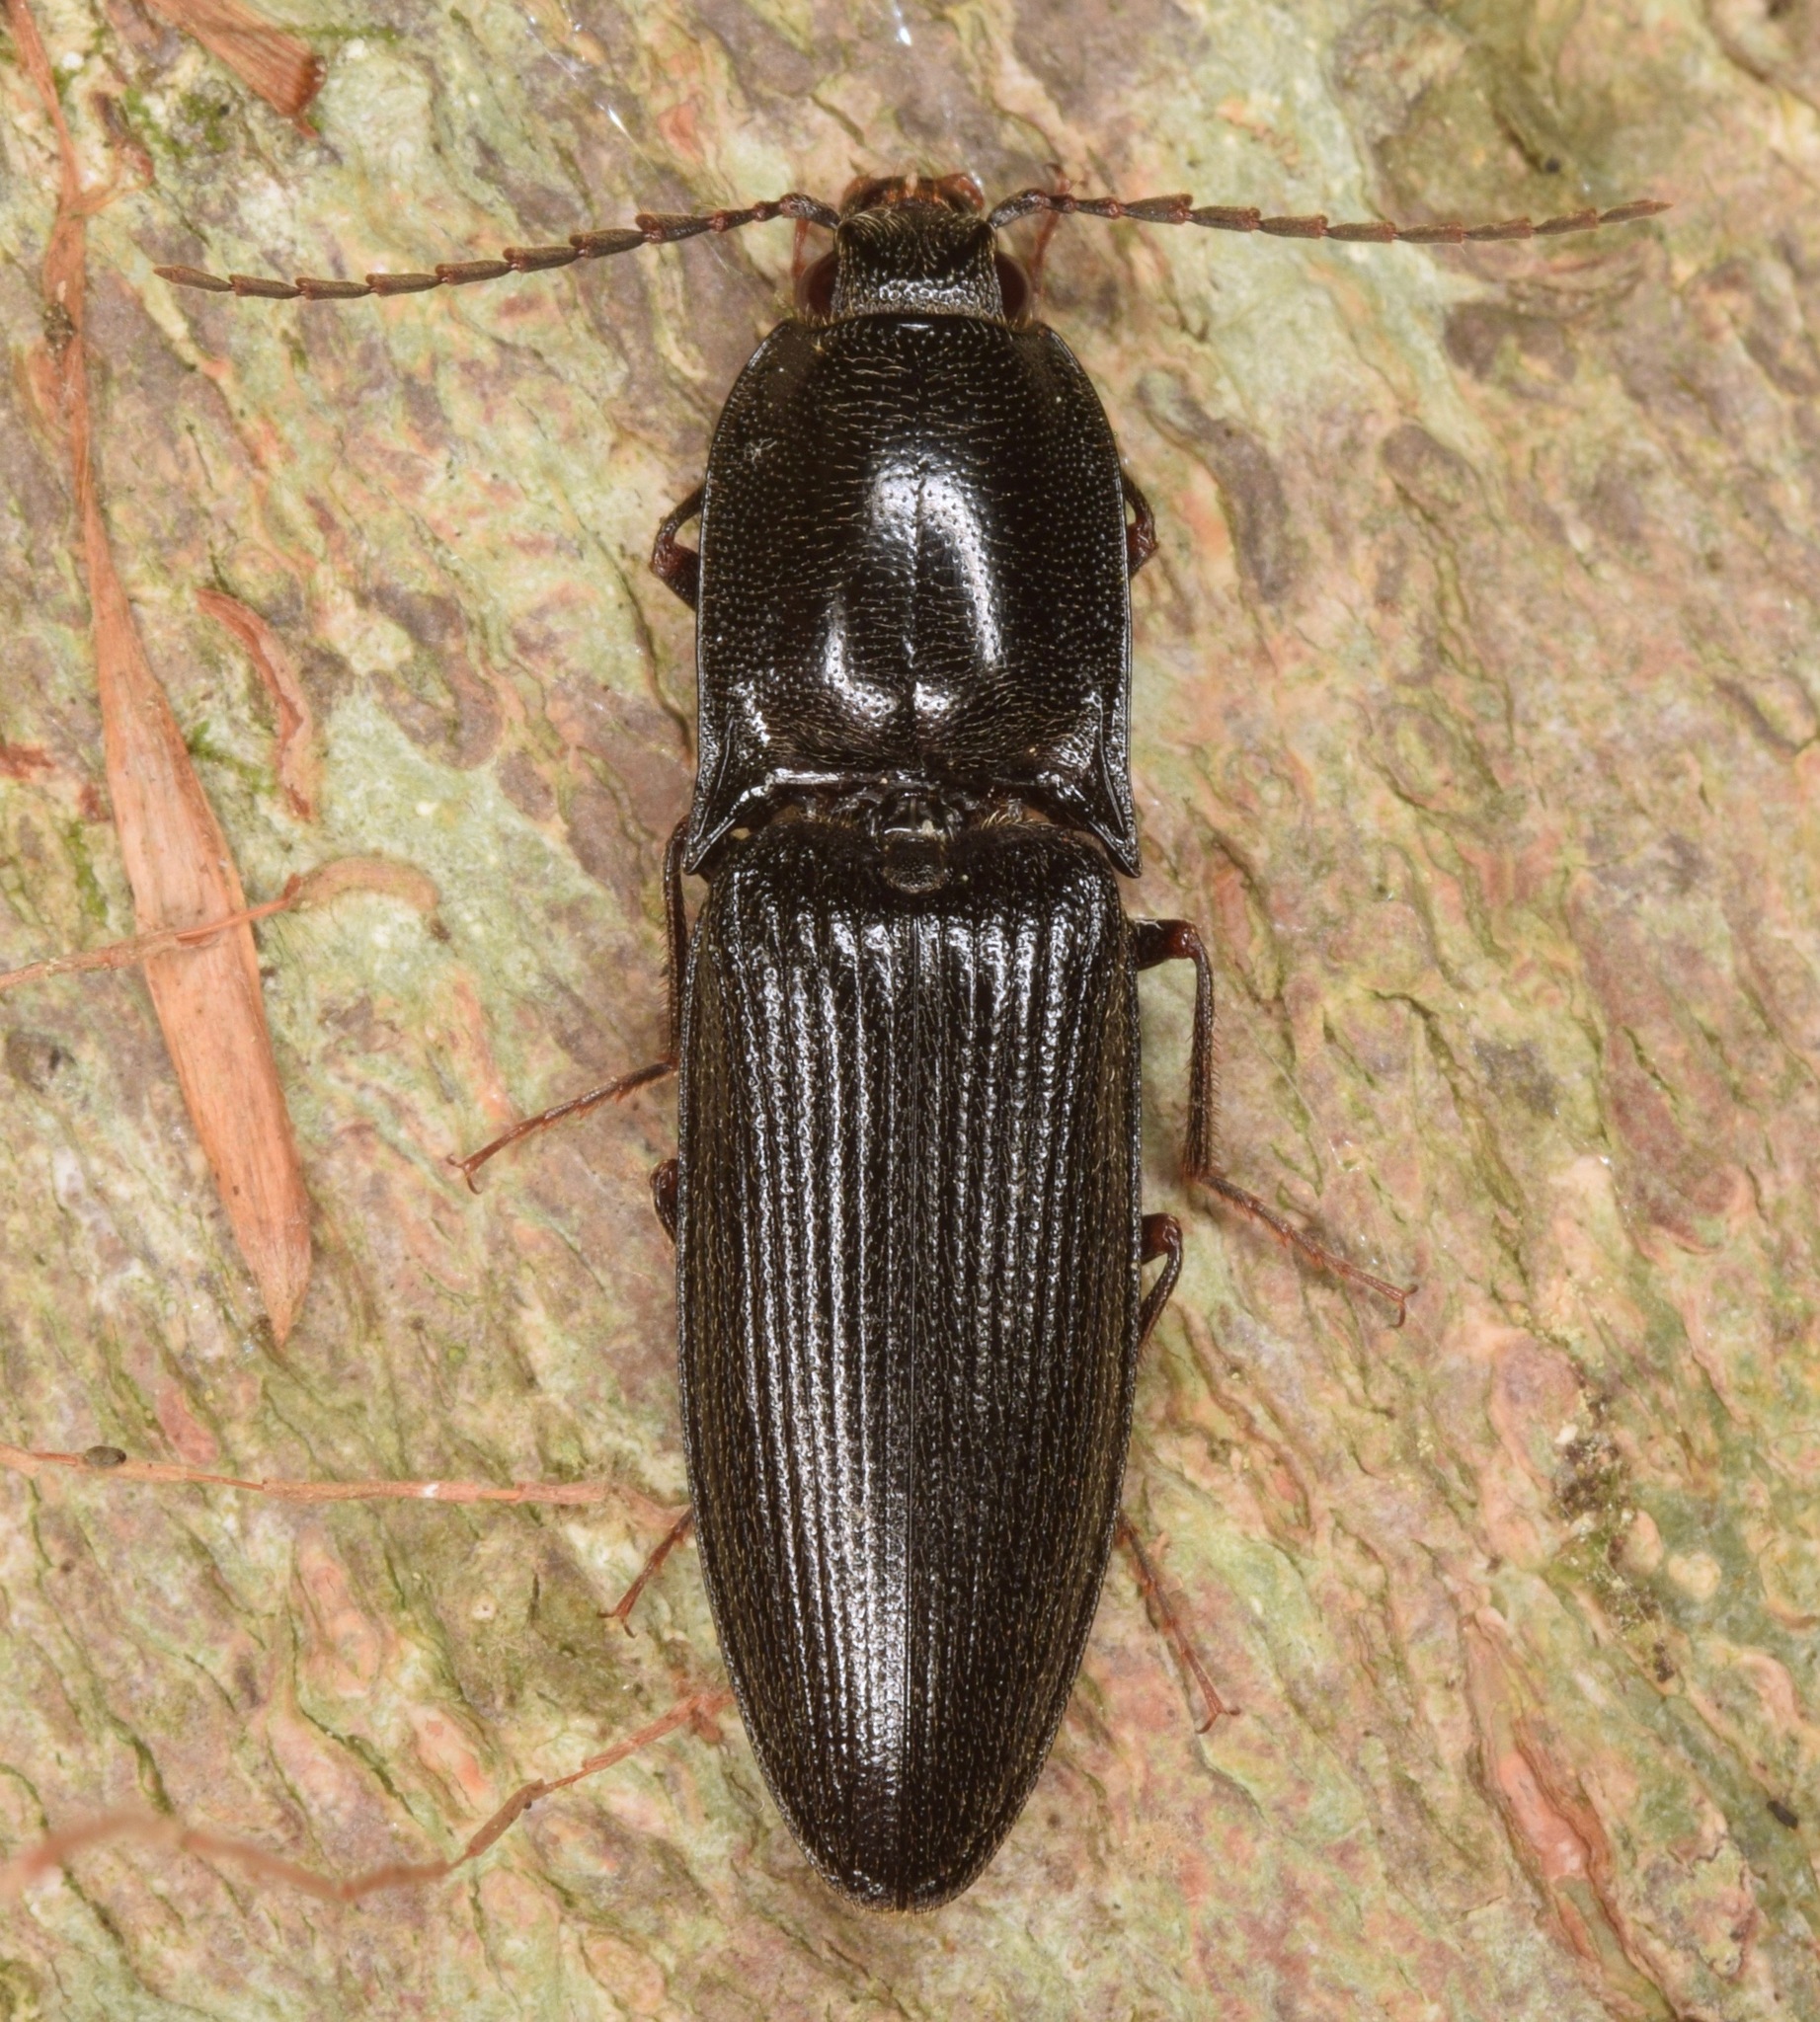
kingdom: Animalia
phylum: Arthropoda
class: Insecta
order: Coleoptera
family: Elateridae
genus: Neopristilophus
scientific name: Neopristilophus
